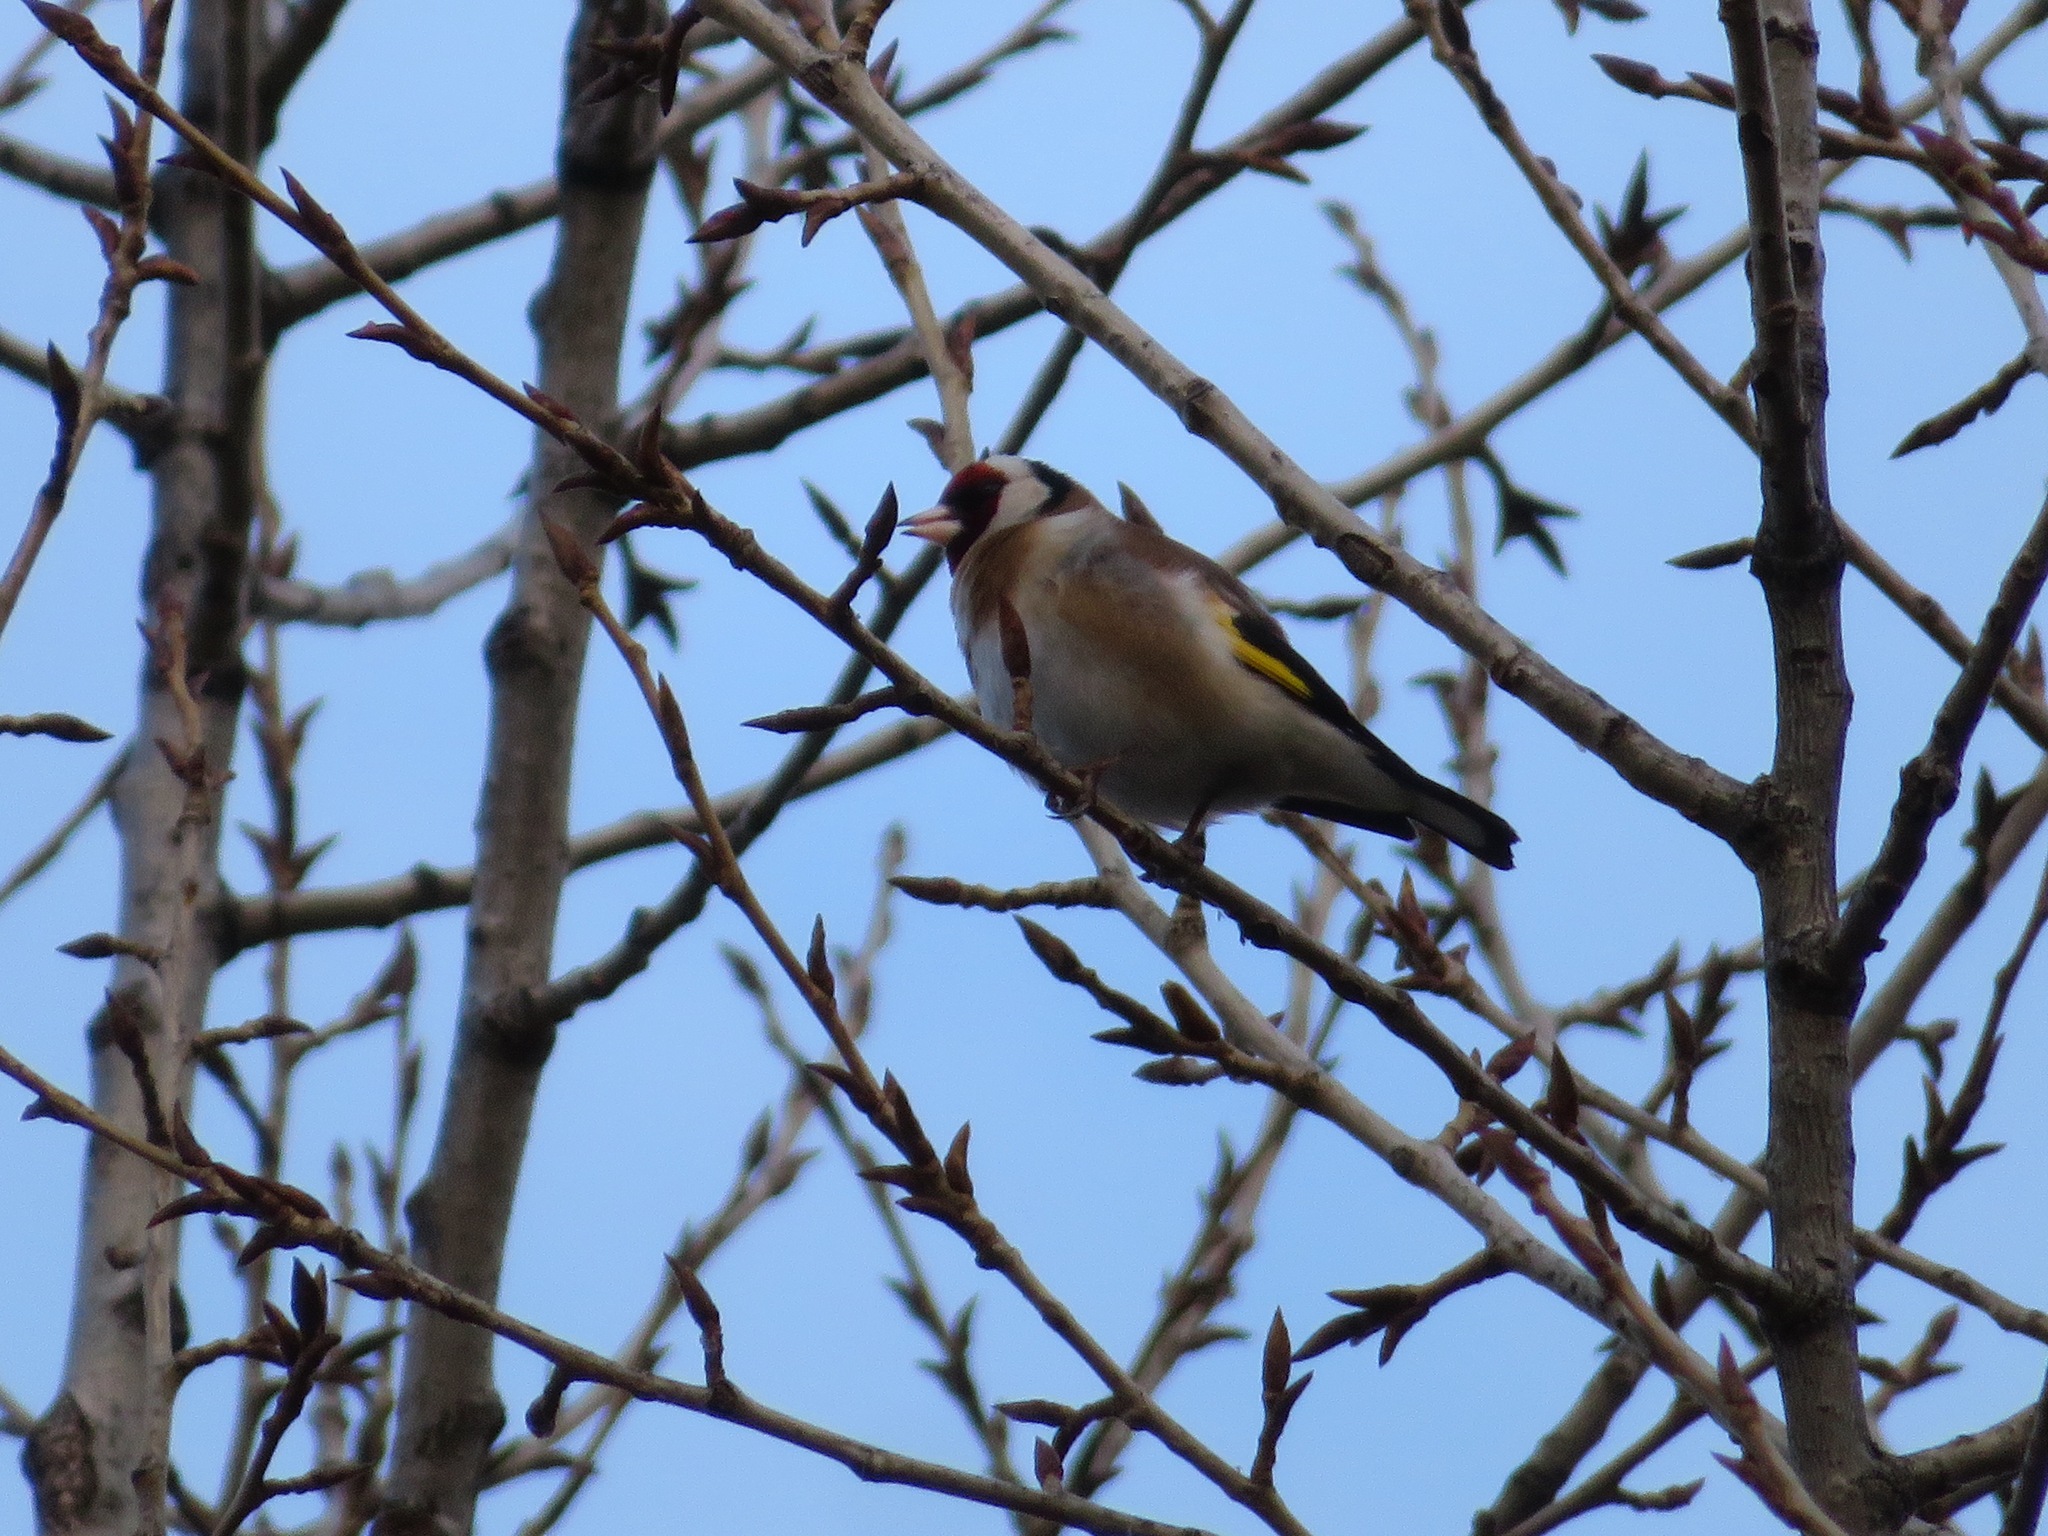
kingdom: Animalia
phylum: Chordata
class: Aves
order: Passeriformes
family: Fringillidae
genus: Carduelis
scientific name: Carduelis carduelis
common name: European goldfinch
